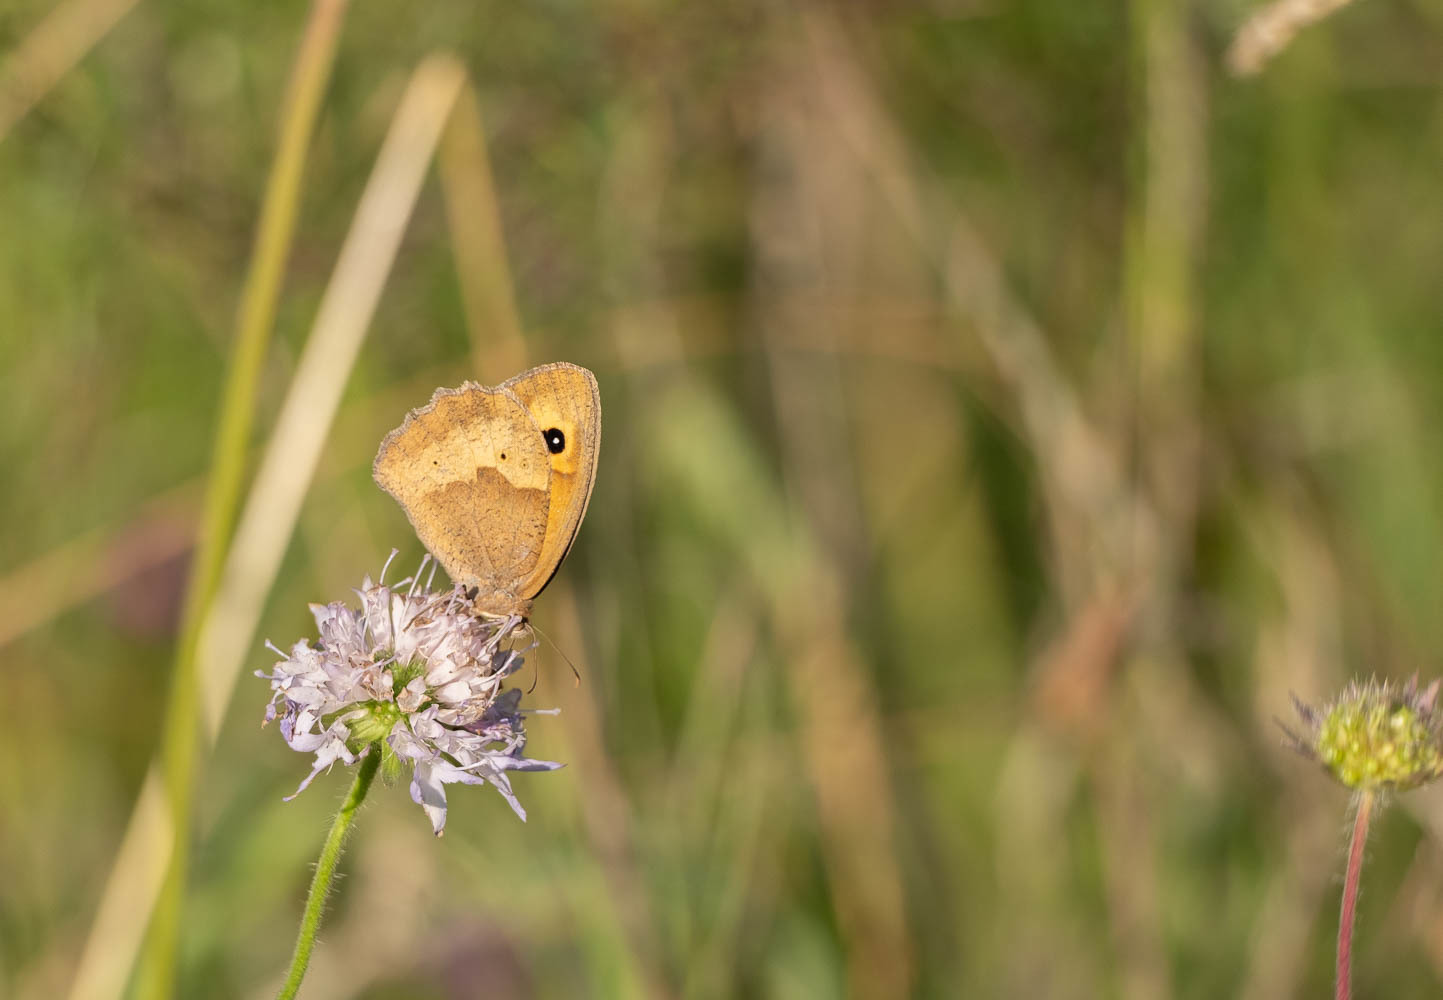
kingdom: Animalia
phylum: Arthropoda
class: Insecta
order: Lepidoptera
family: Nymphalidae
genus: Maniola
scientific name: Maniola jurtina
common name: Meadow brown
